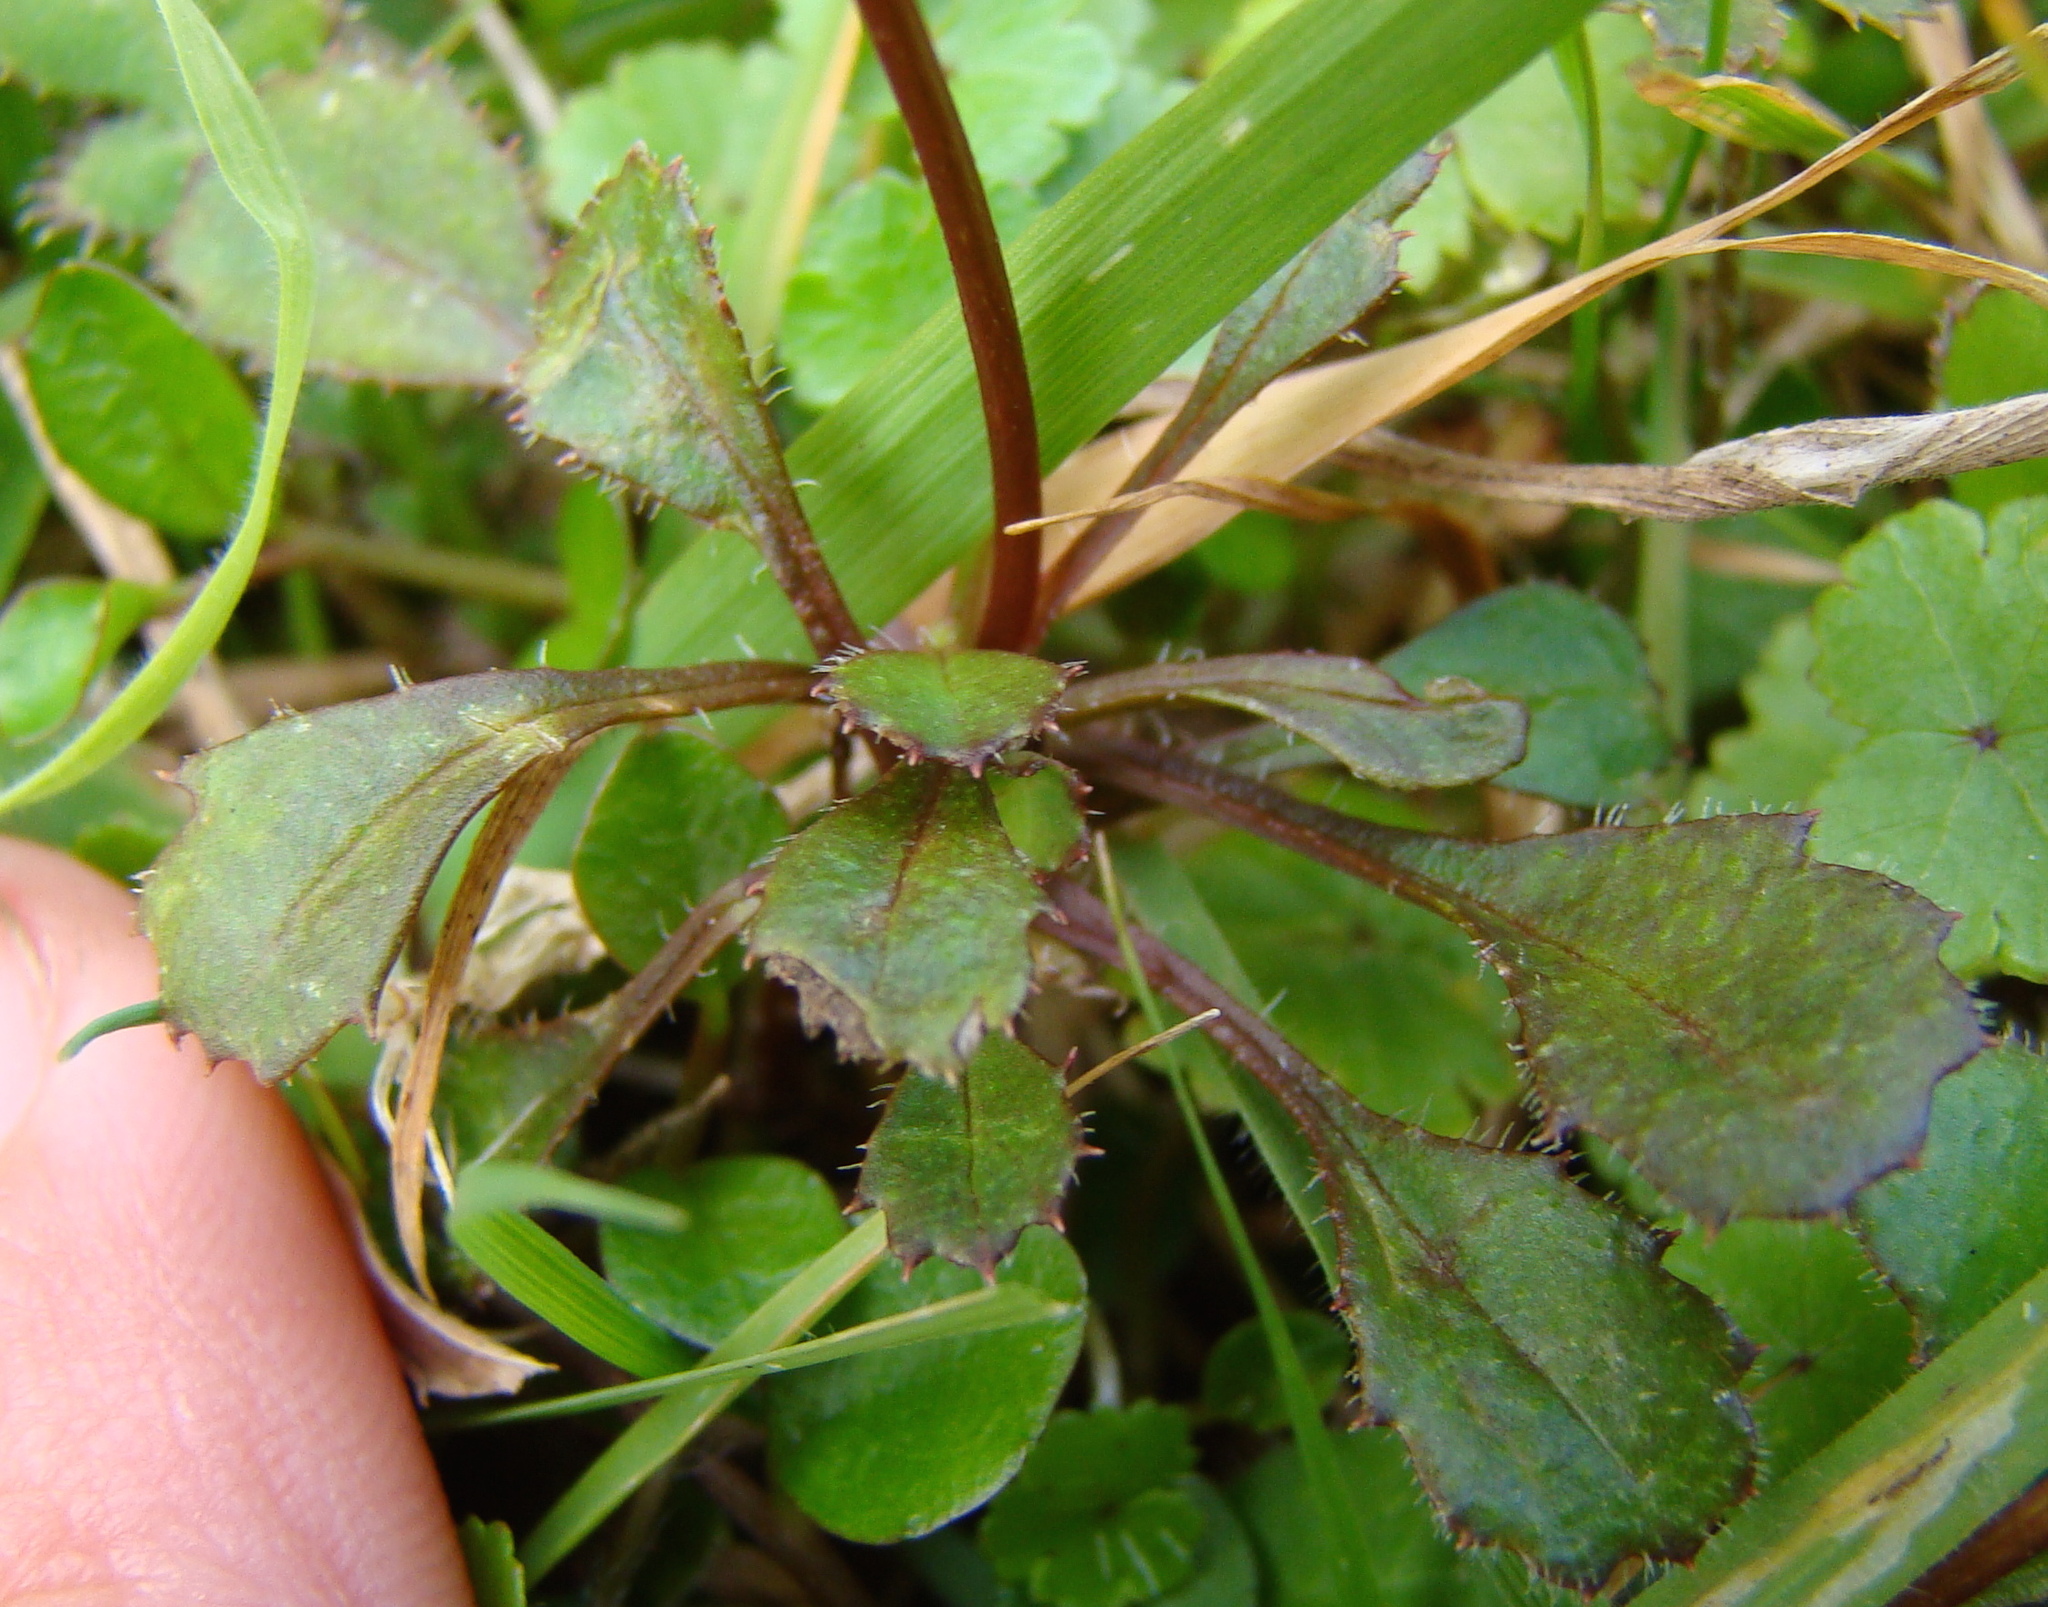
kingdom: Plantae
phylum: Tracheophyta
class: Magnoliopsida
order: Asterales
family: Asteraceae
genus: Lagenophora
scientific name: Lagenophora pumila
